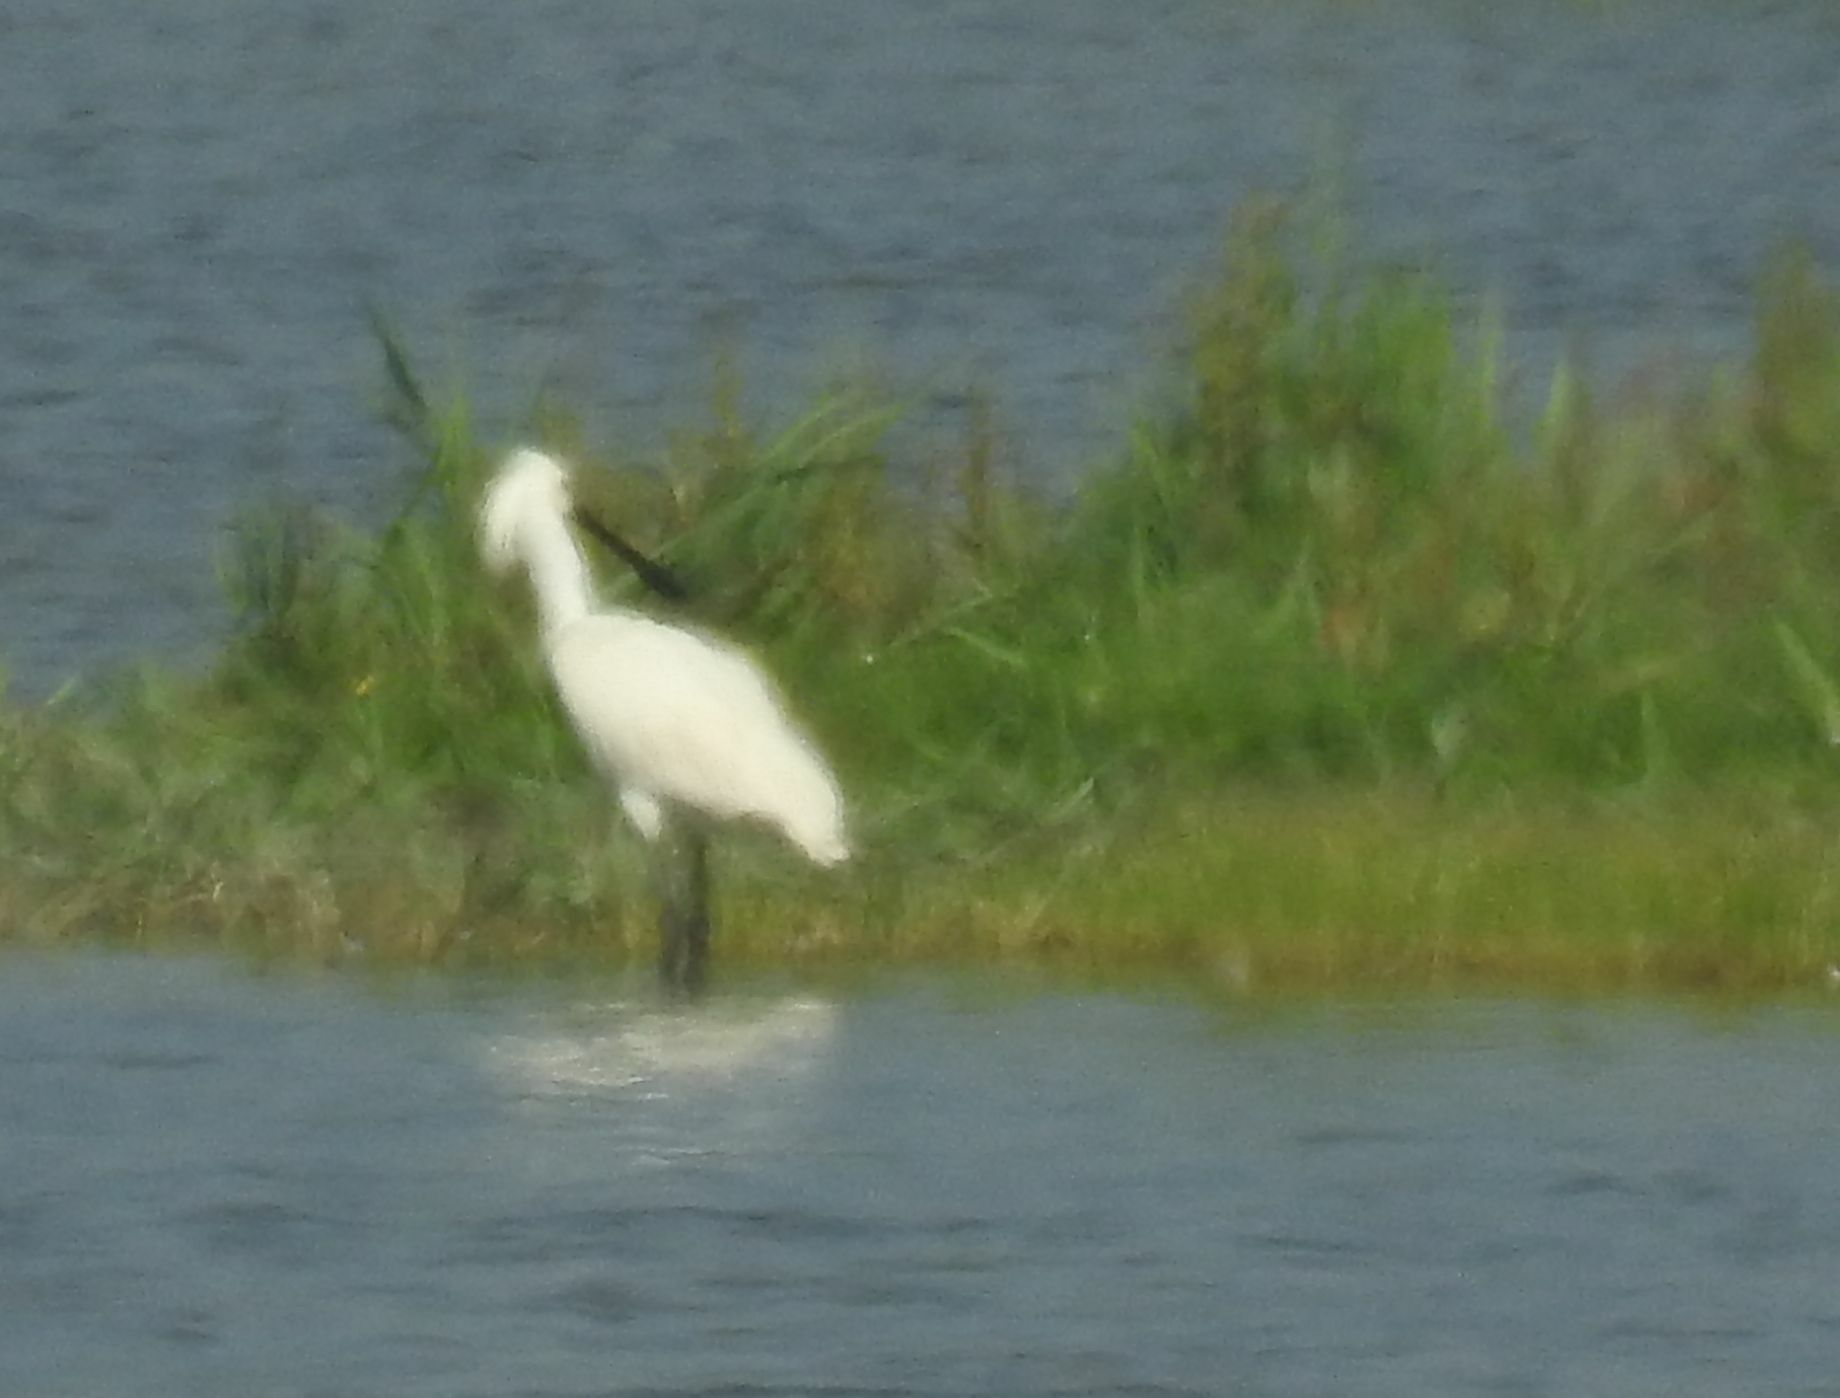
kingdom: Animalia
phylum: Chordata
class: Aves
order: Pelecaniformes
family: Threskiornithidae
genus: Platalea
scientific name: Platalea leucorodia
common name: Eurasian spoonbill
